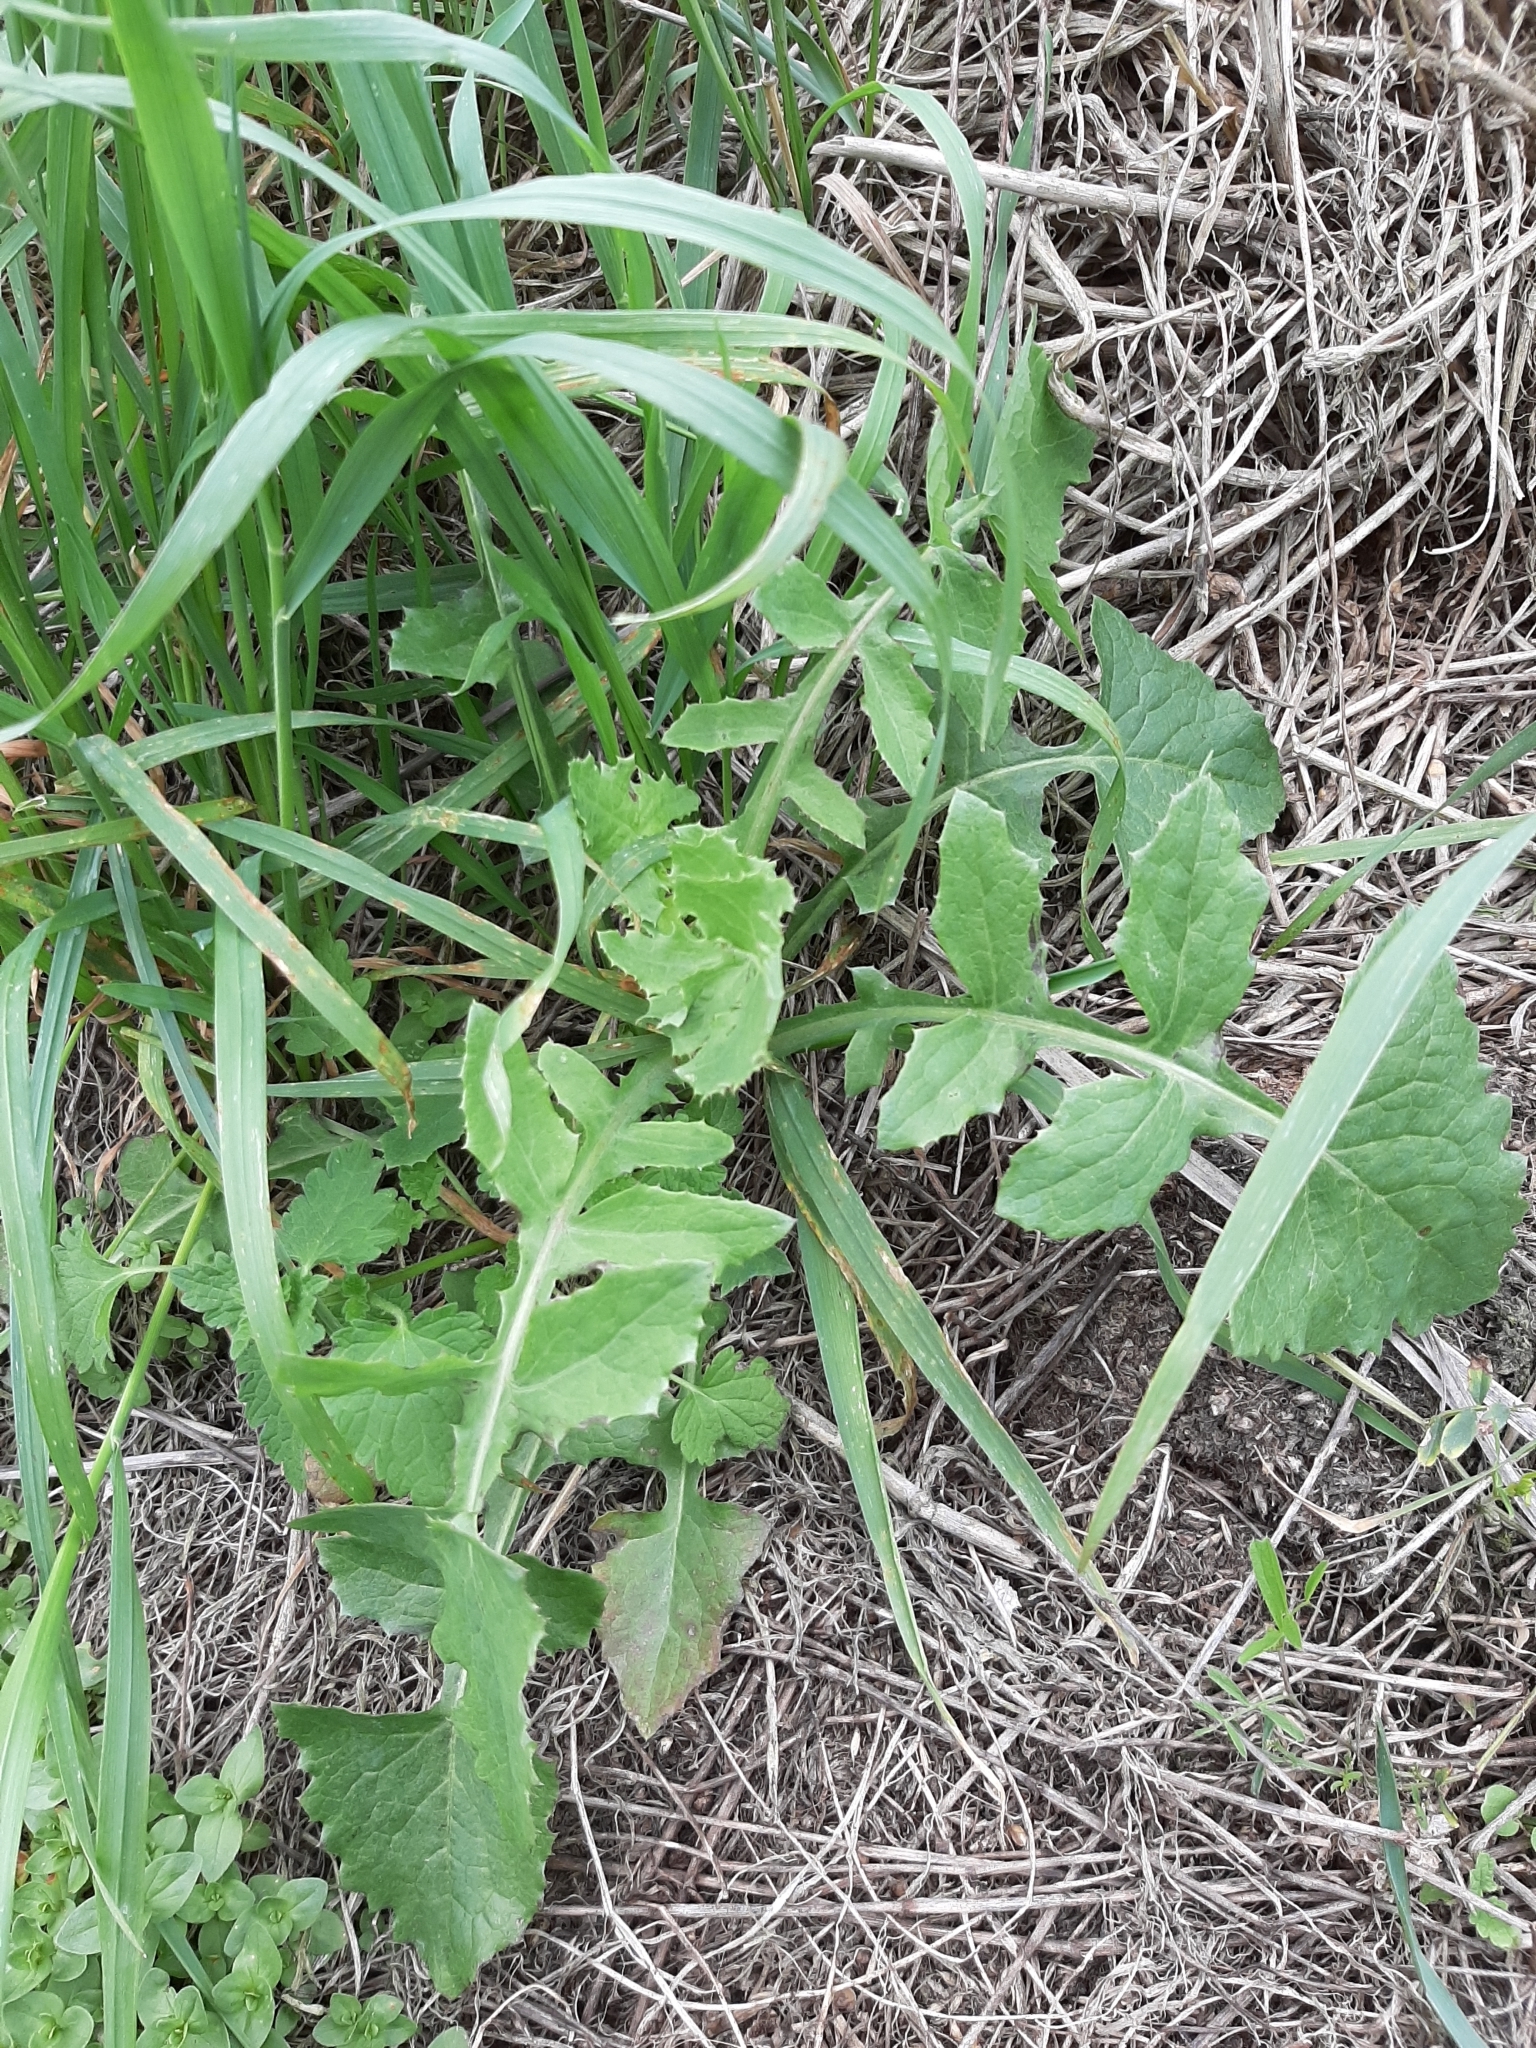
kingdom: Plantae
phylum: Tracheophyta
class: Magnoliopsida
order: Asterales
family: Asteraceae
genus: Sonchus
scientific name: Sonchus oleraceus
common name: Common sowthistle
